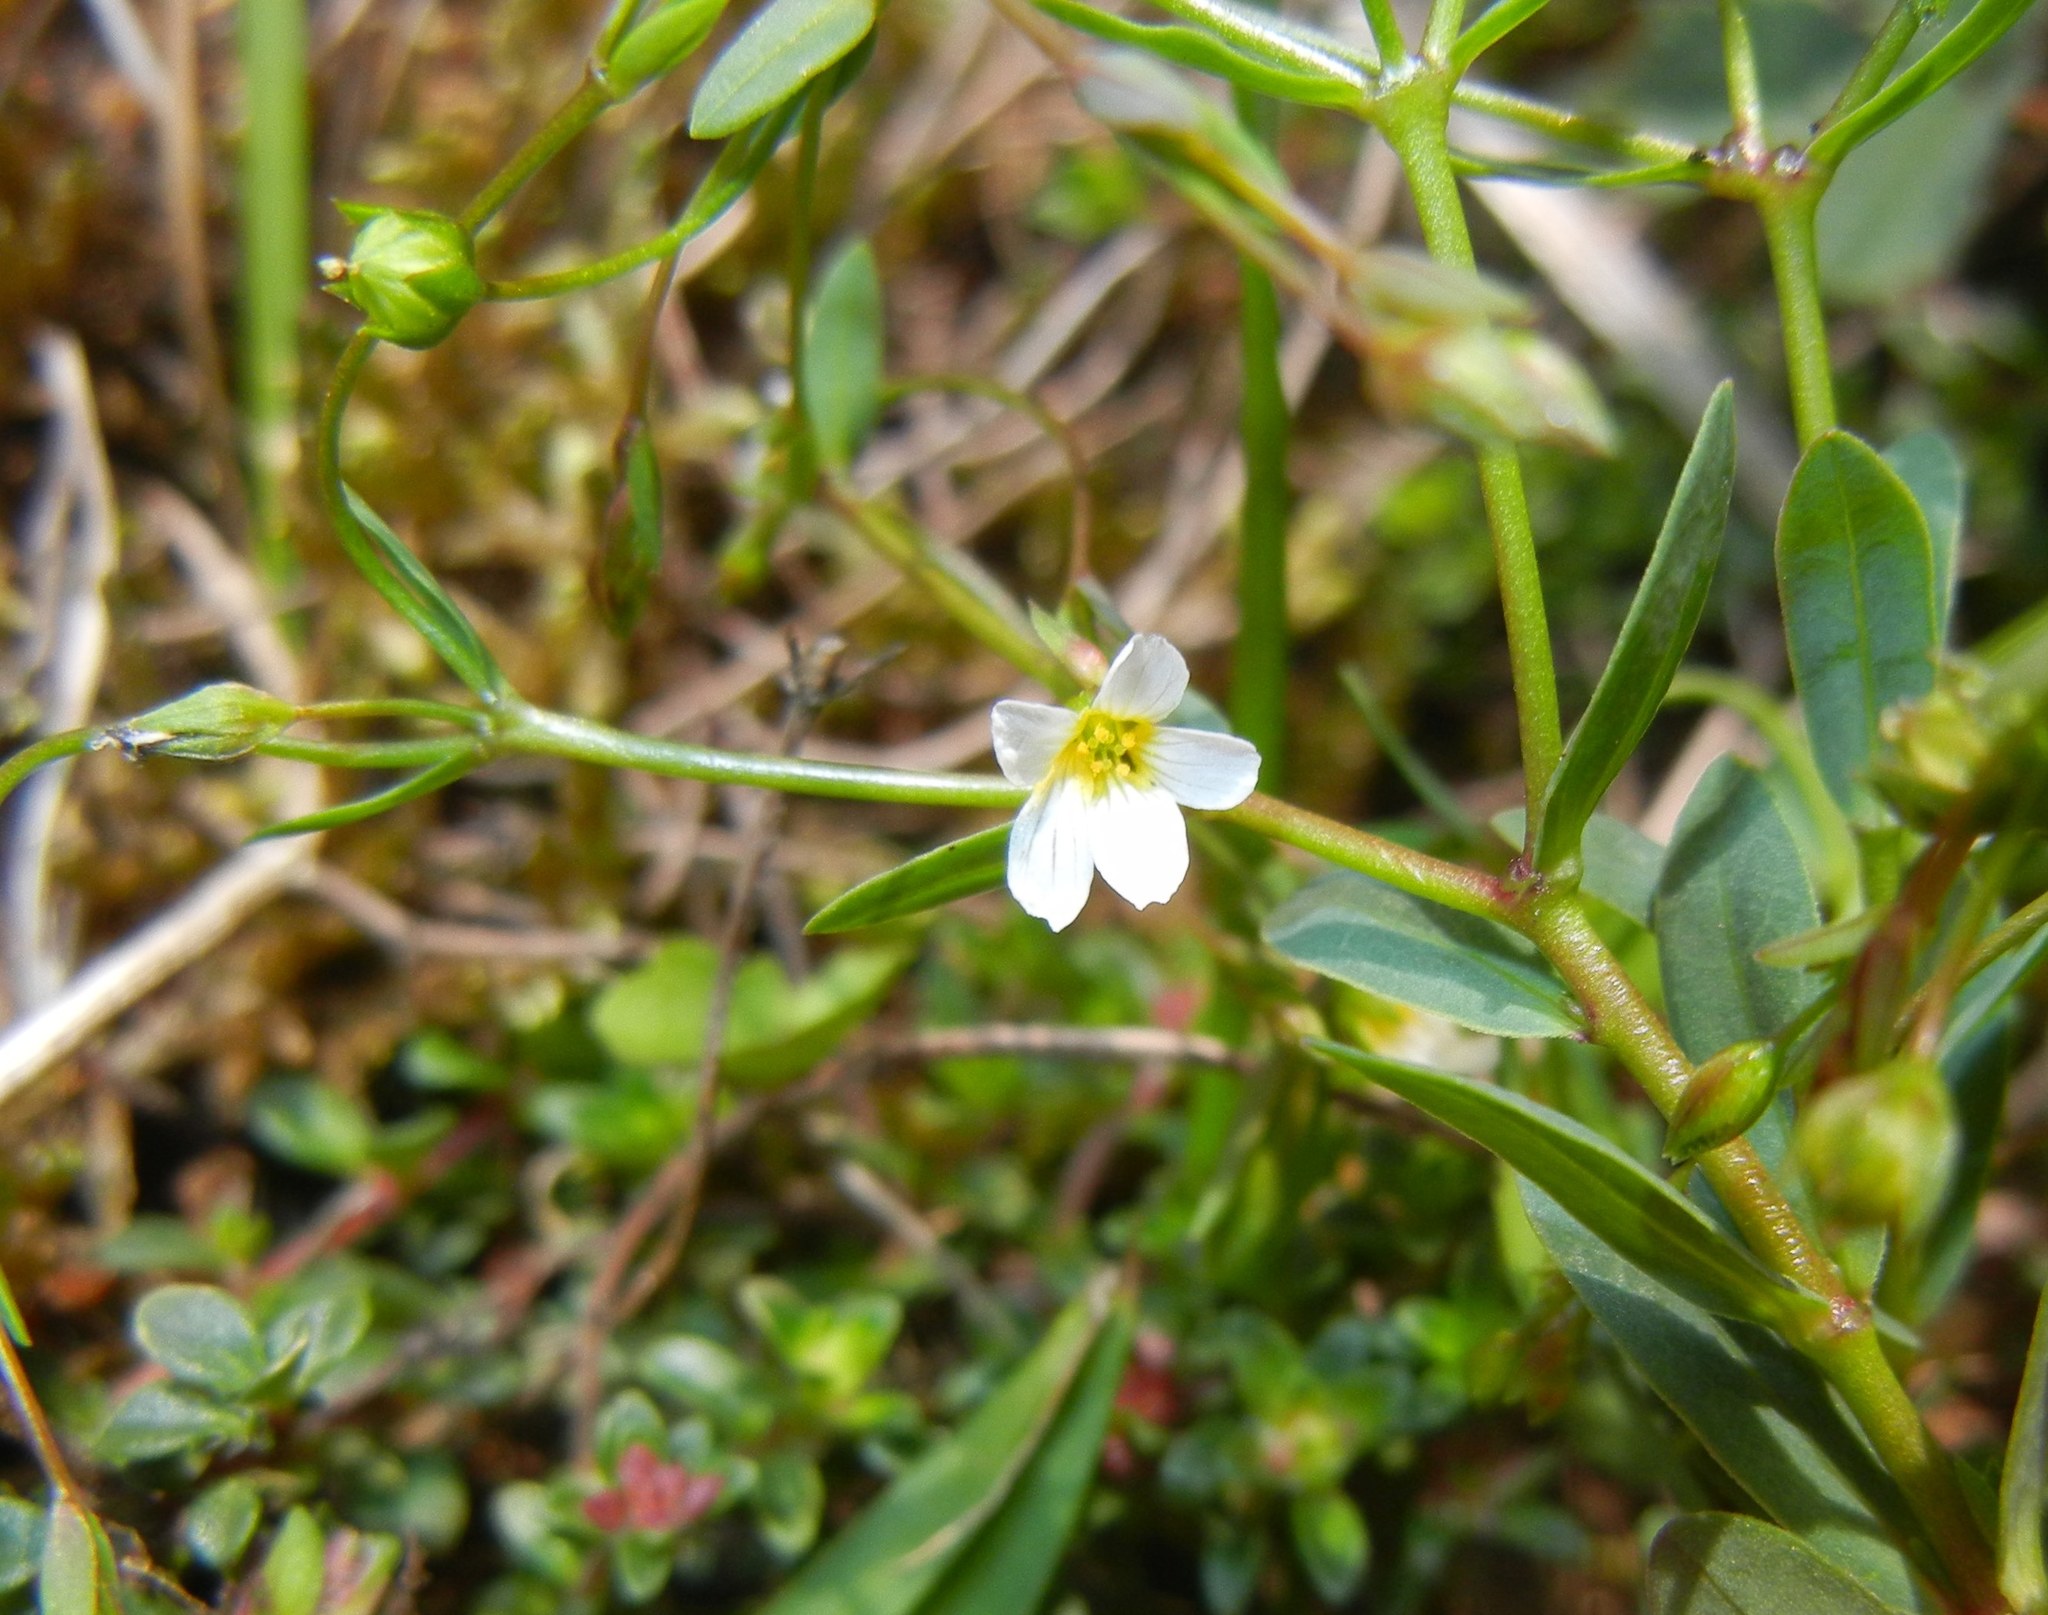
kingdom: Plantae
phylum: Tracheophyta
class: Magnoliopsida
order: Malpighiales
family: Linaceae
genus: Linum
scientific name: Linum catharticum
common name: Fairy flax
